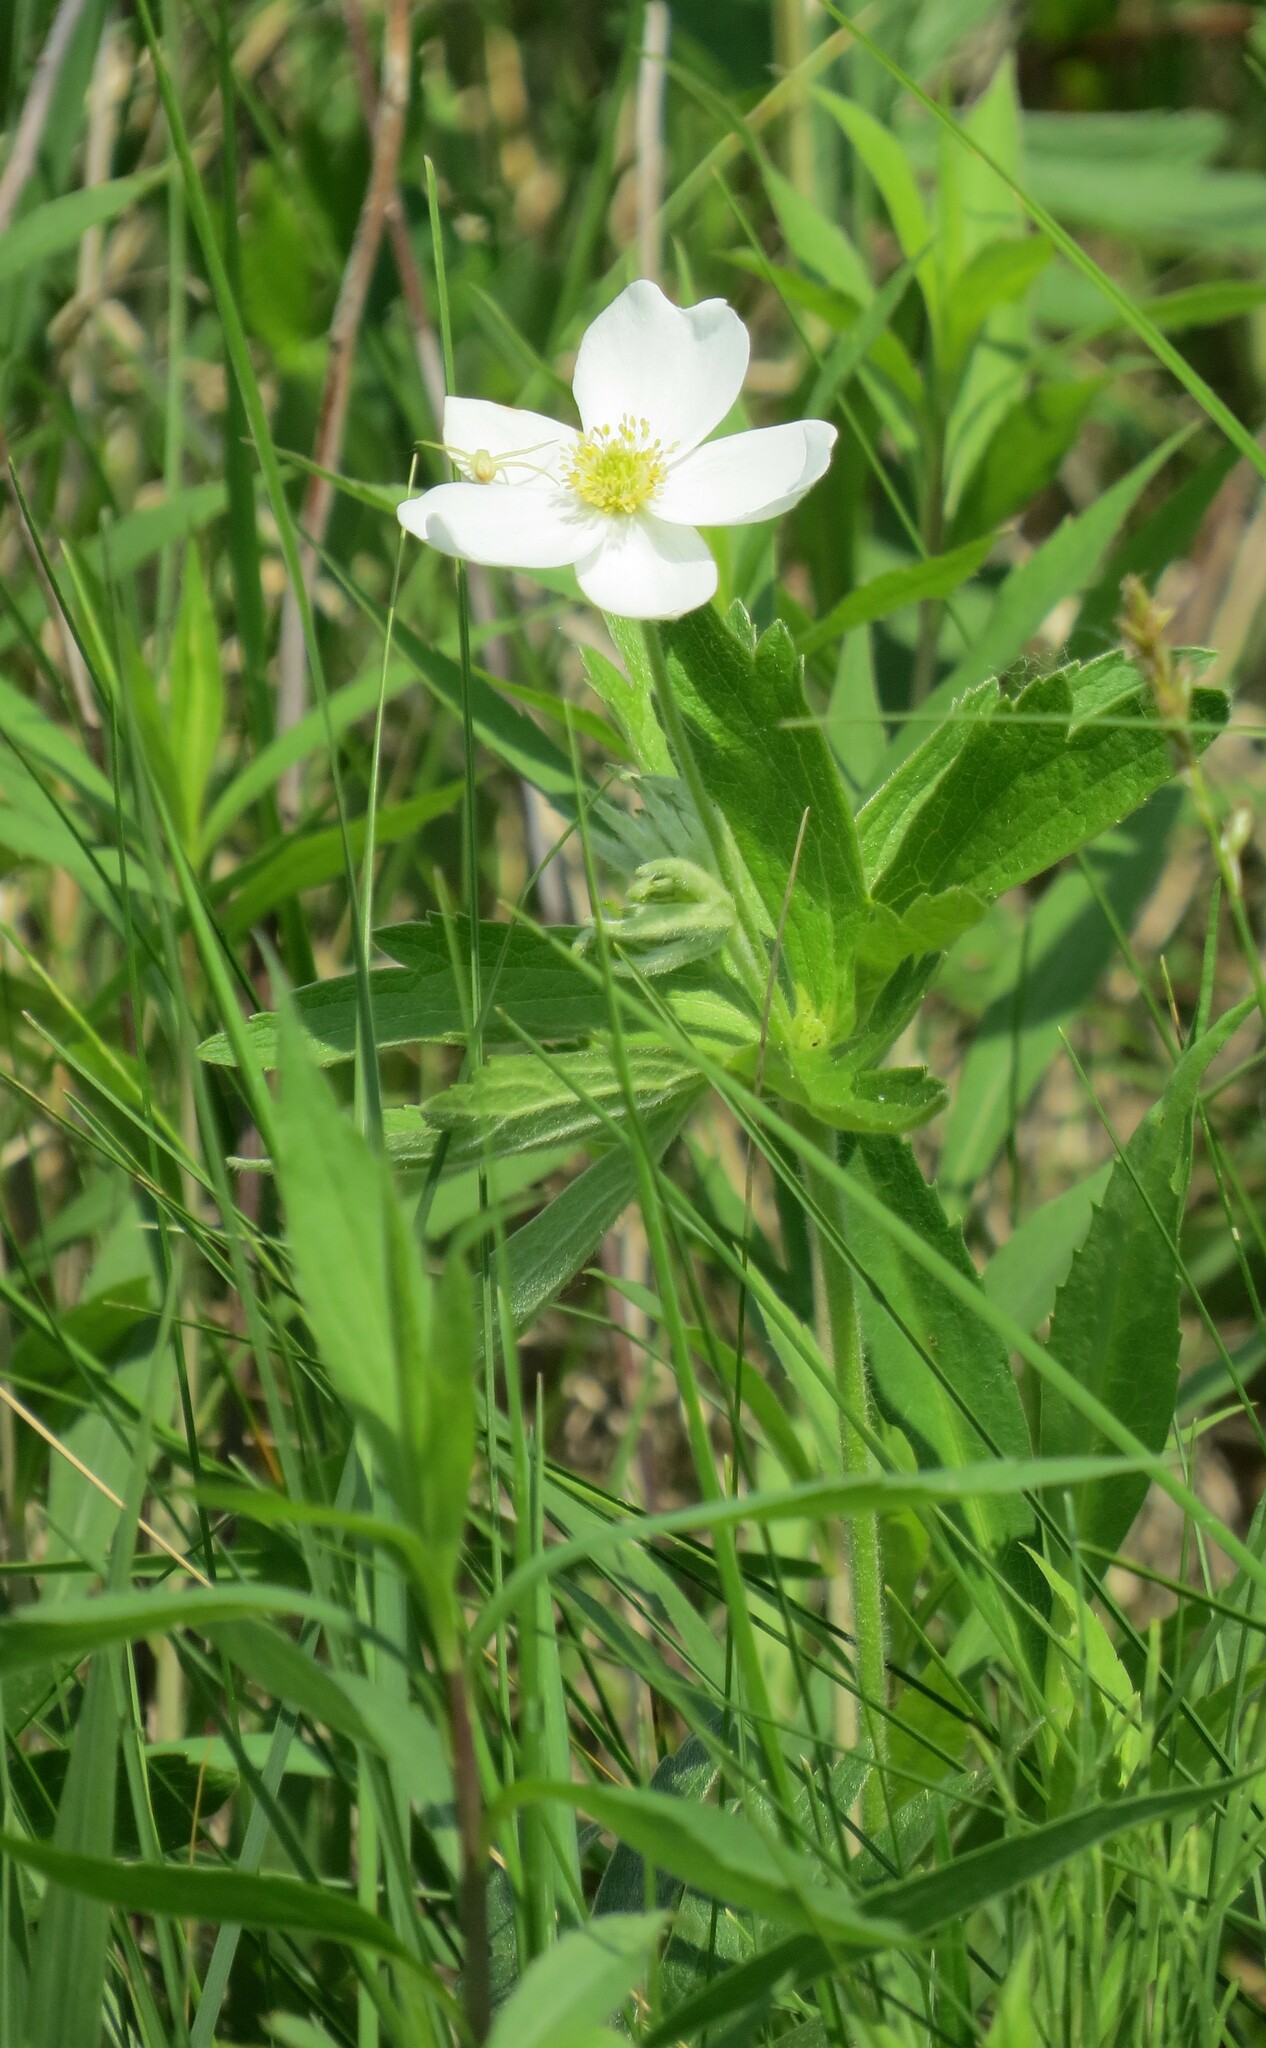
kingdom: Plantae
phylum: Tracheophyta
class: Magnoliopsida
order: Ranunculales
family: Ranunculaceae
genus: Anemonastrum
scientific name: Anemonastrum canadense
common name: Canada anemone
